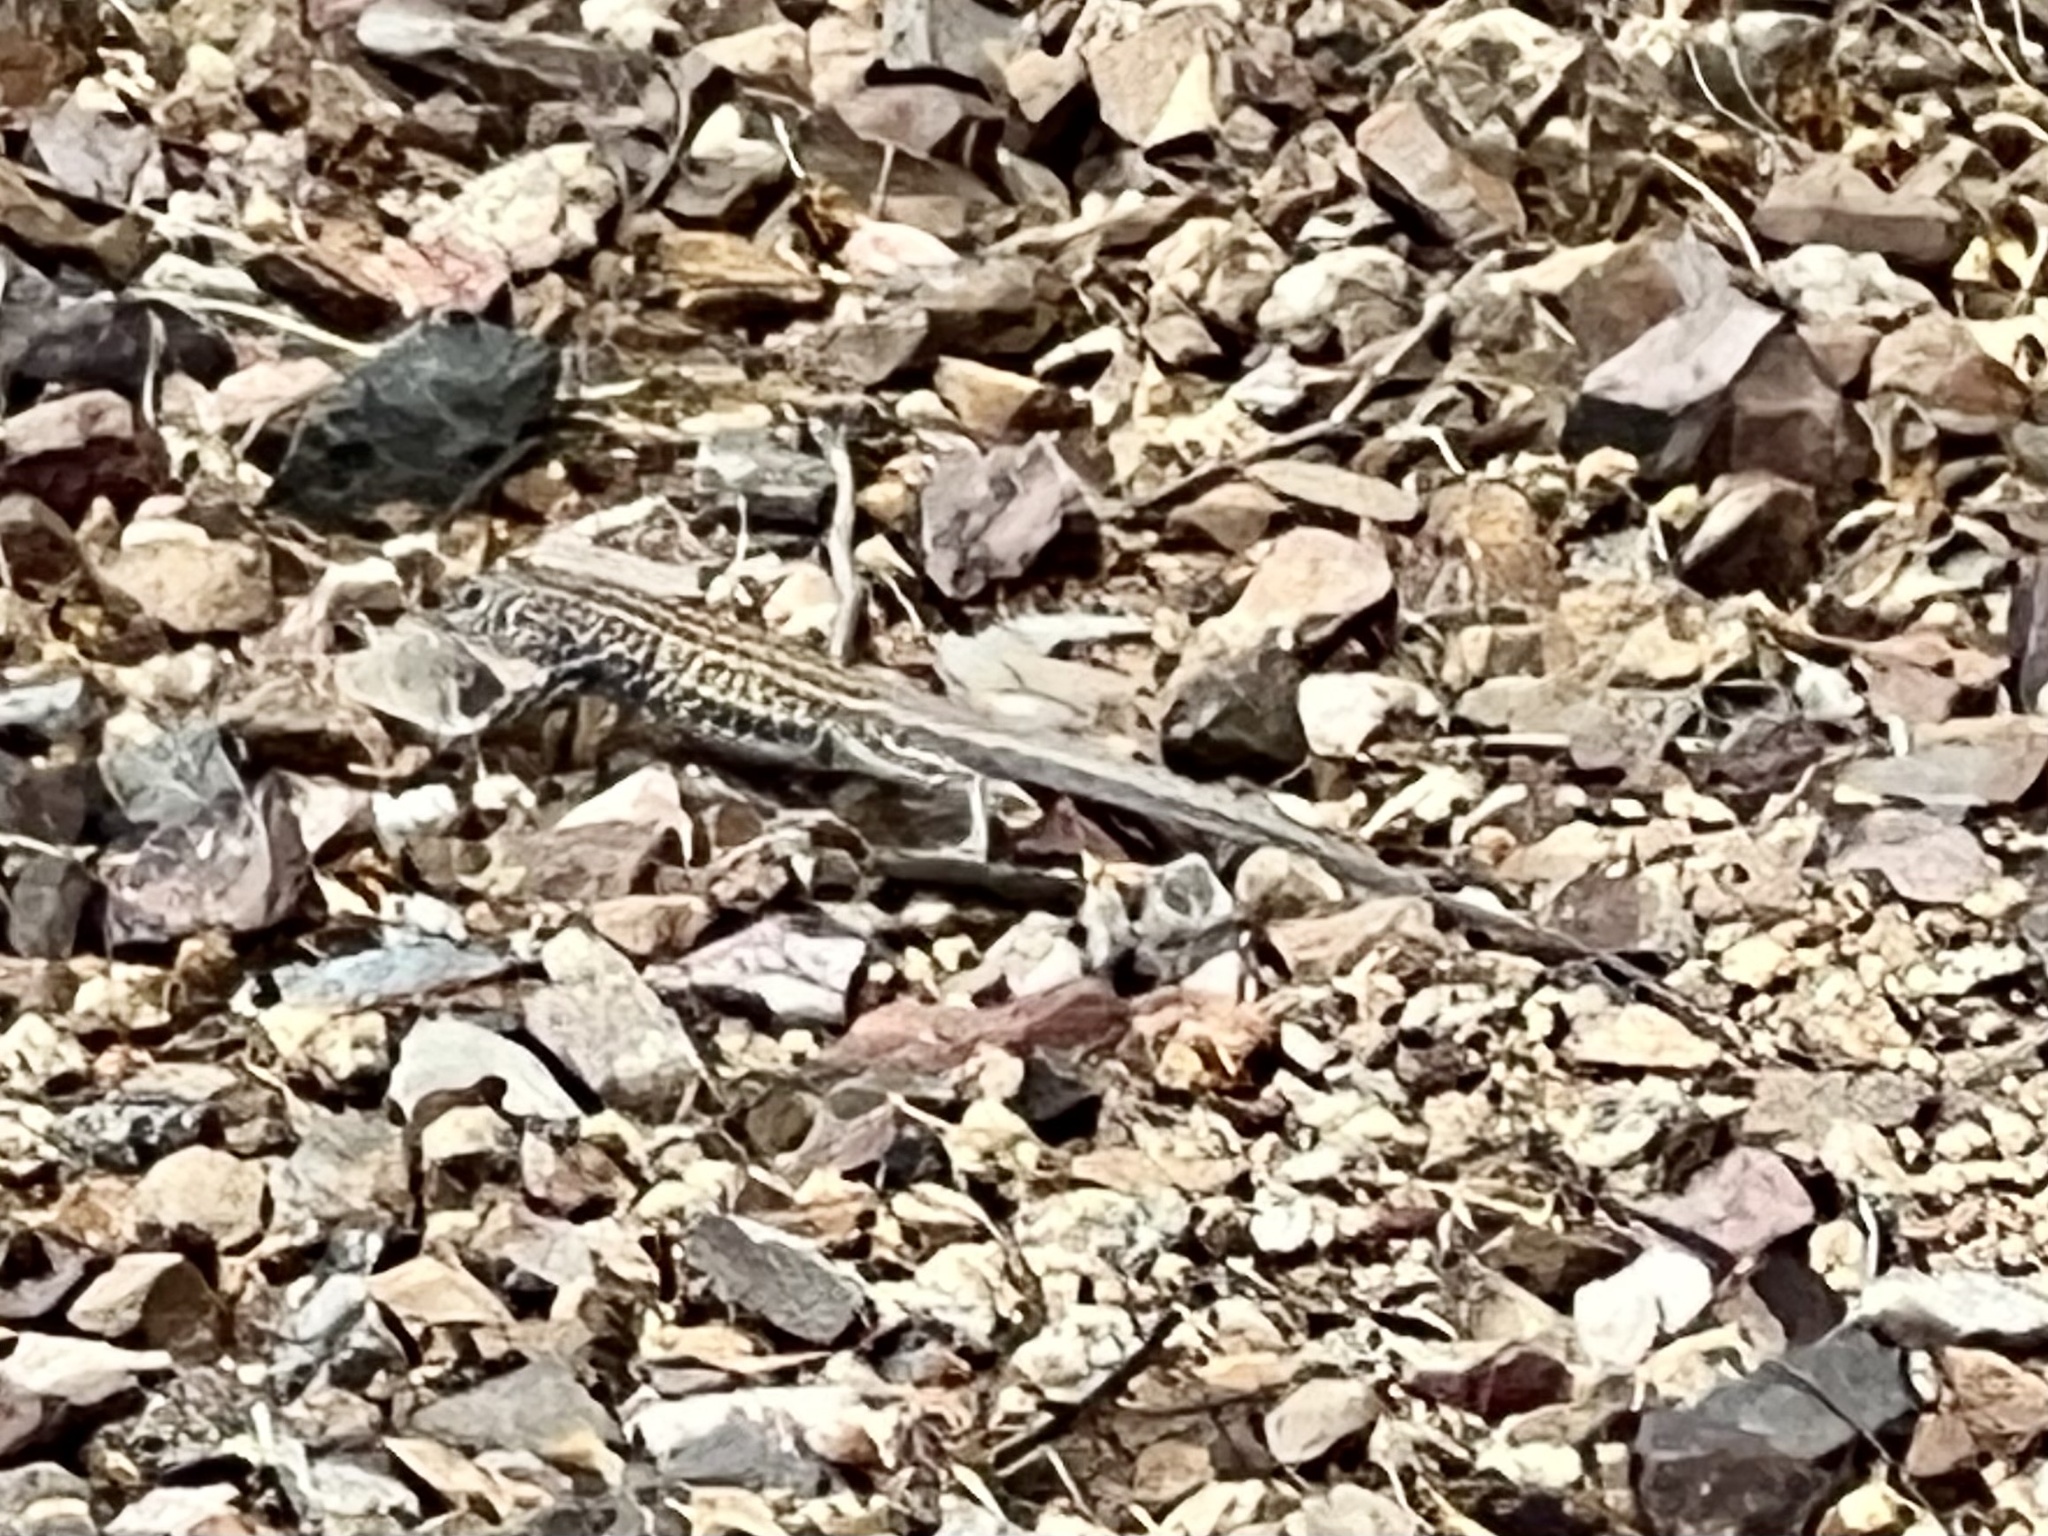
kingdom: Animalia
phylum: Chordata
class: Squamata
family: Teiidae
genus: Aspidoscelis
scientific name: Aspidoscelis tigris
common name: Tiger whiptail
